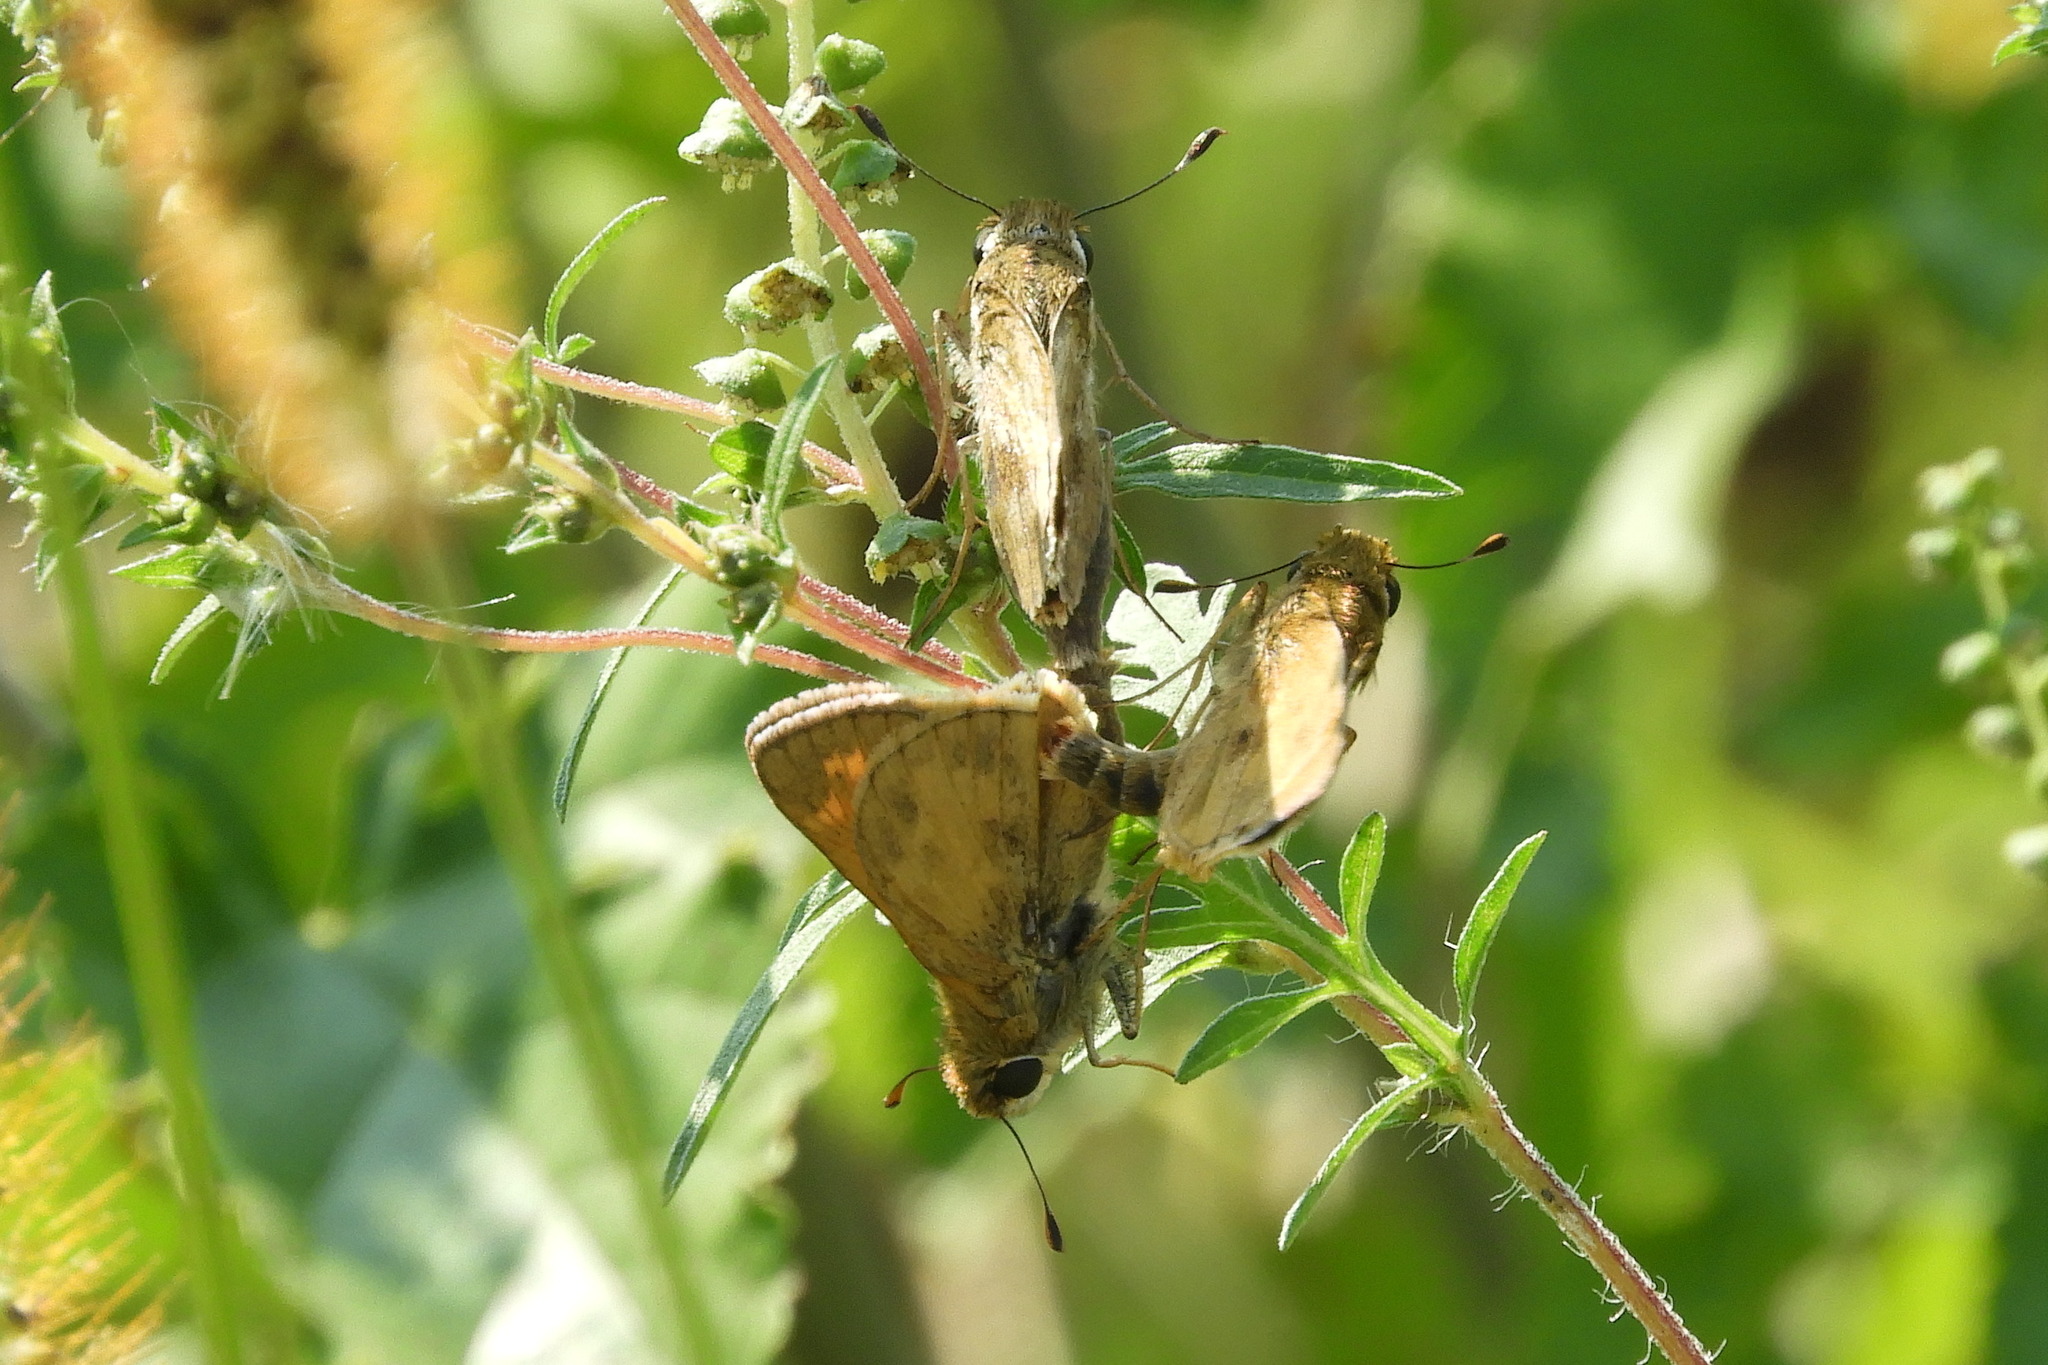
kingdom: Animalia
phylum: Arthropoda
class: Insecta
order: Lepidoptera
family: Hesperiidae
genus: Atalopedes
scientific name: Atalopedes
